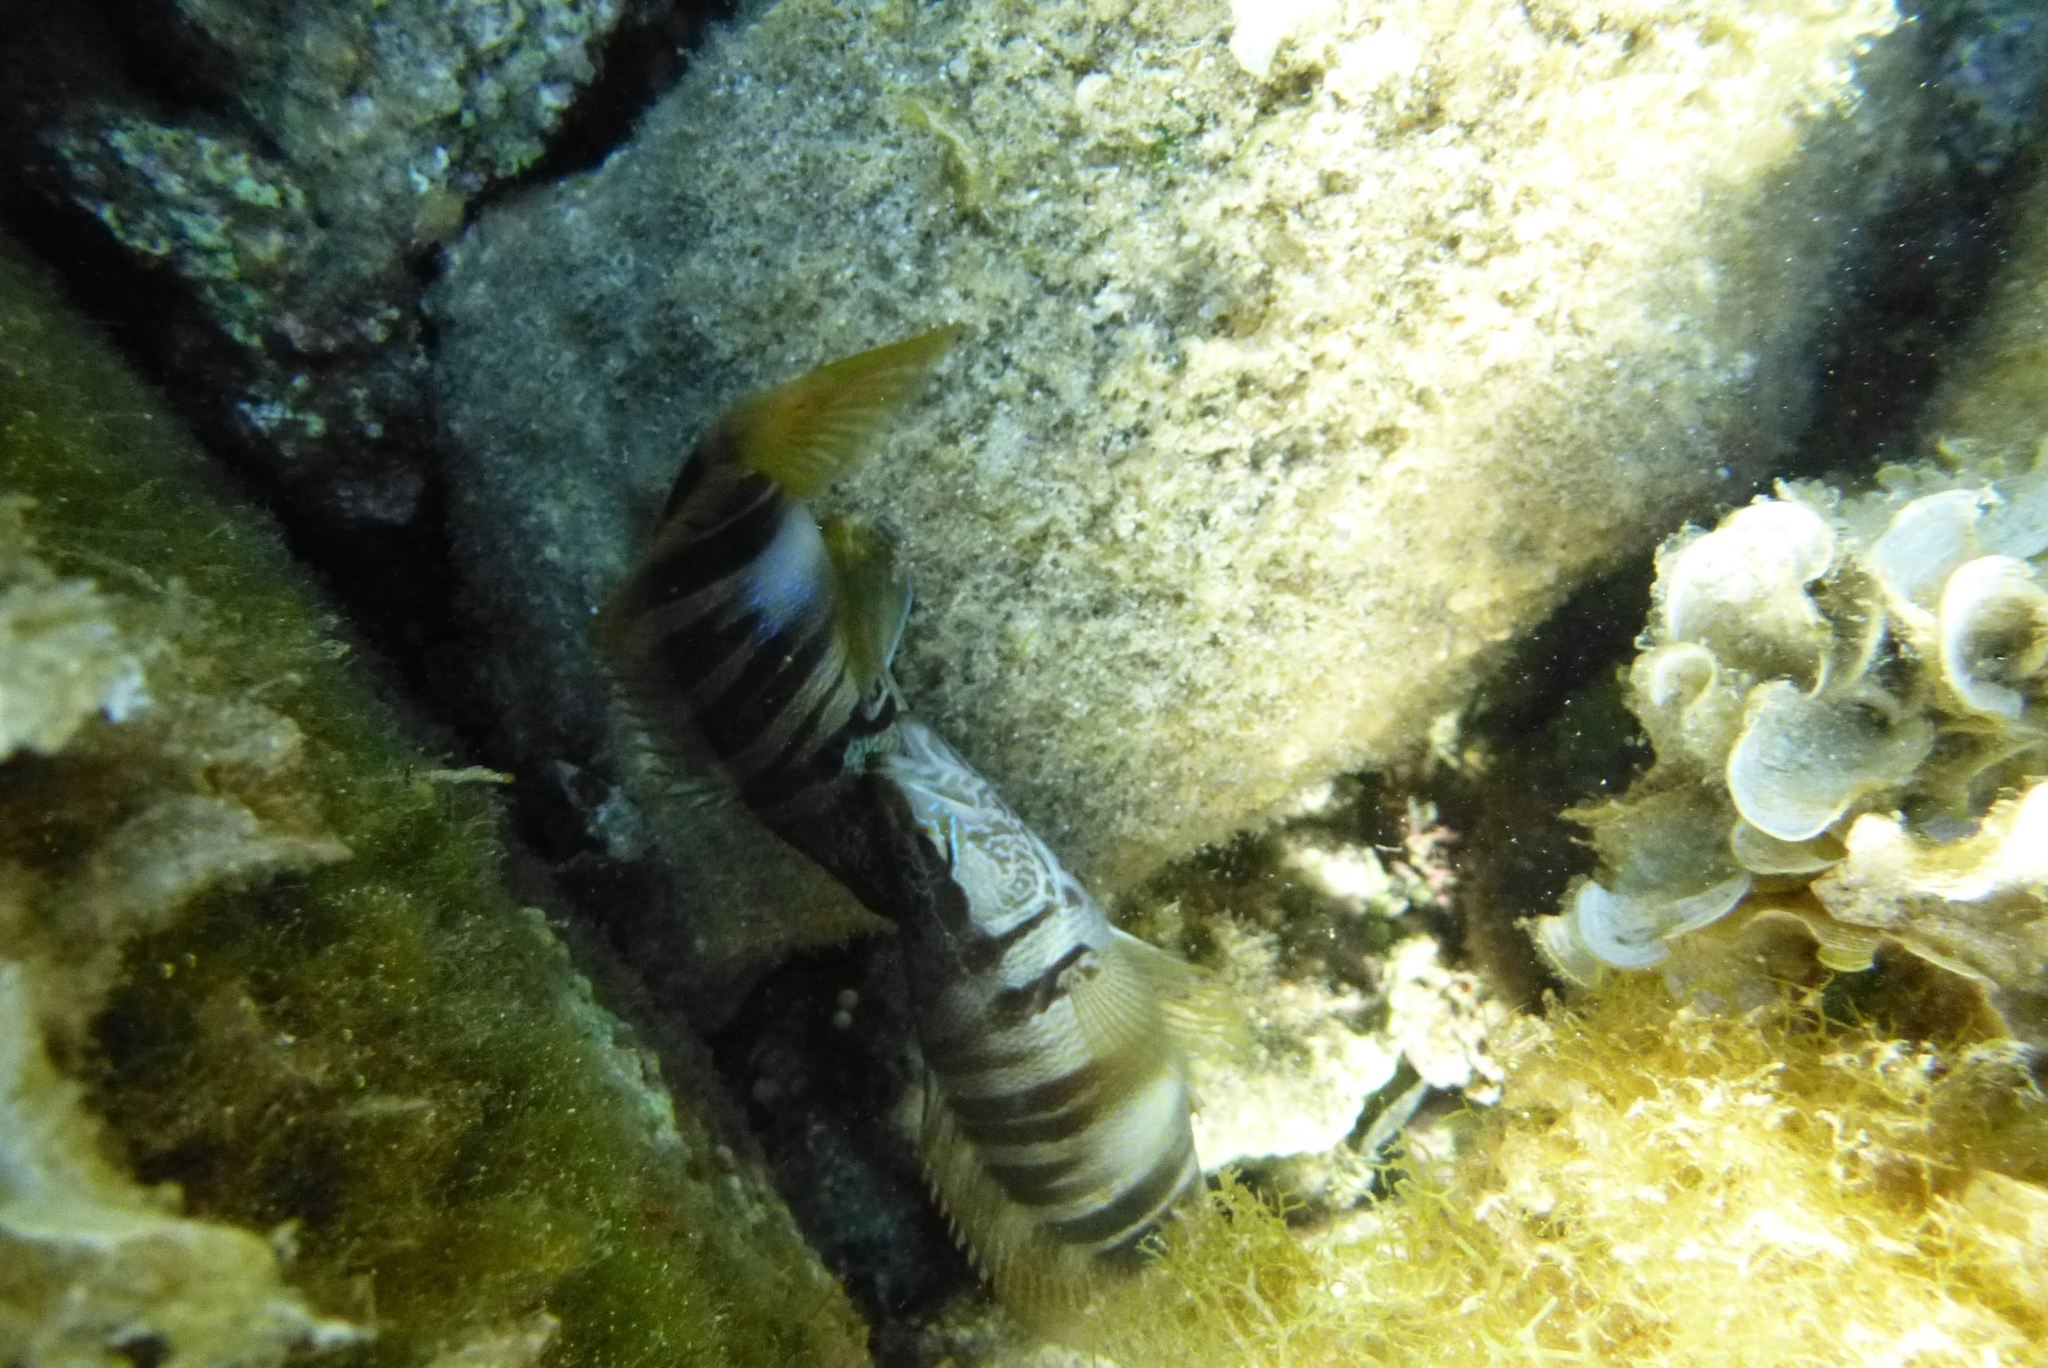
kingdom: Animalia
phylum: Chordata
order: Perciformes
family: Serranidae
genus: Serranus
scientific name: Serranus scriba
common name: Painted comber
